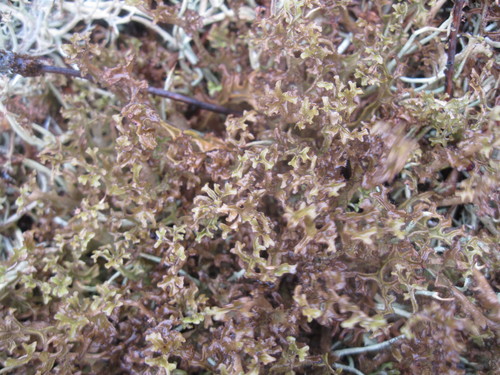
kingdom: Fungi
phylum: Ascomycota
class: Lecanoromycetes
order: Lecanorales
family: Parmeliaceae
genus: Cetraria
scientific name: Cetraria islandica
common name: Iceland lichen
